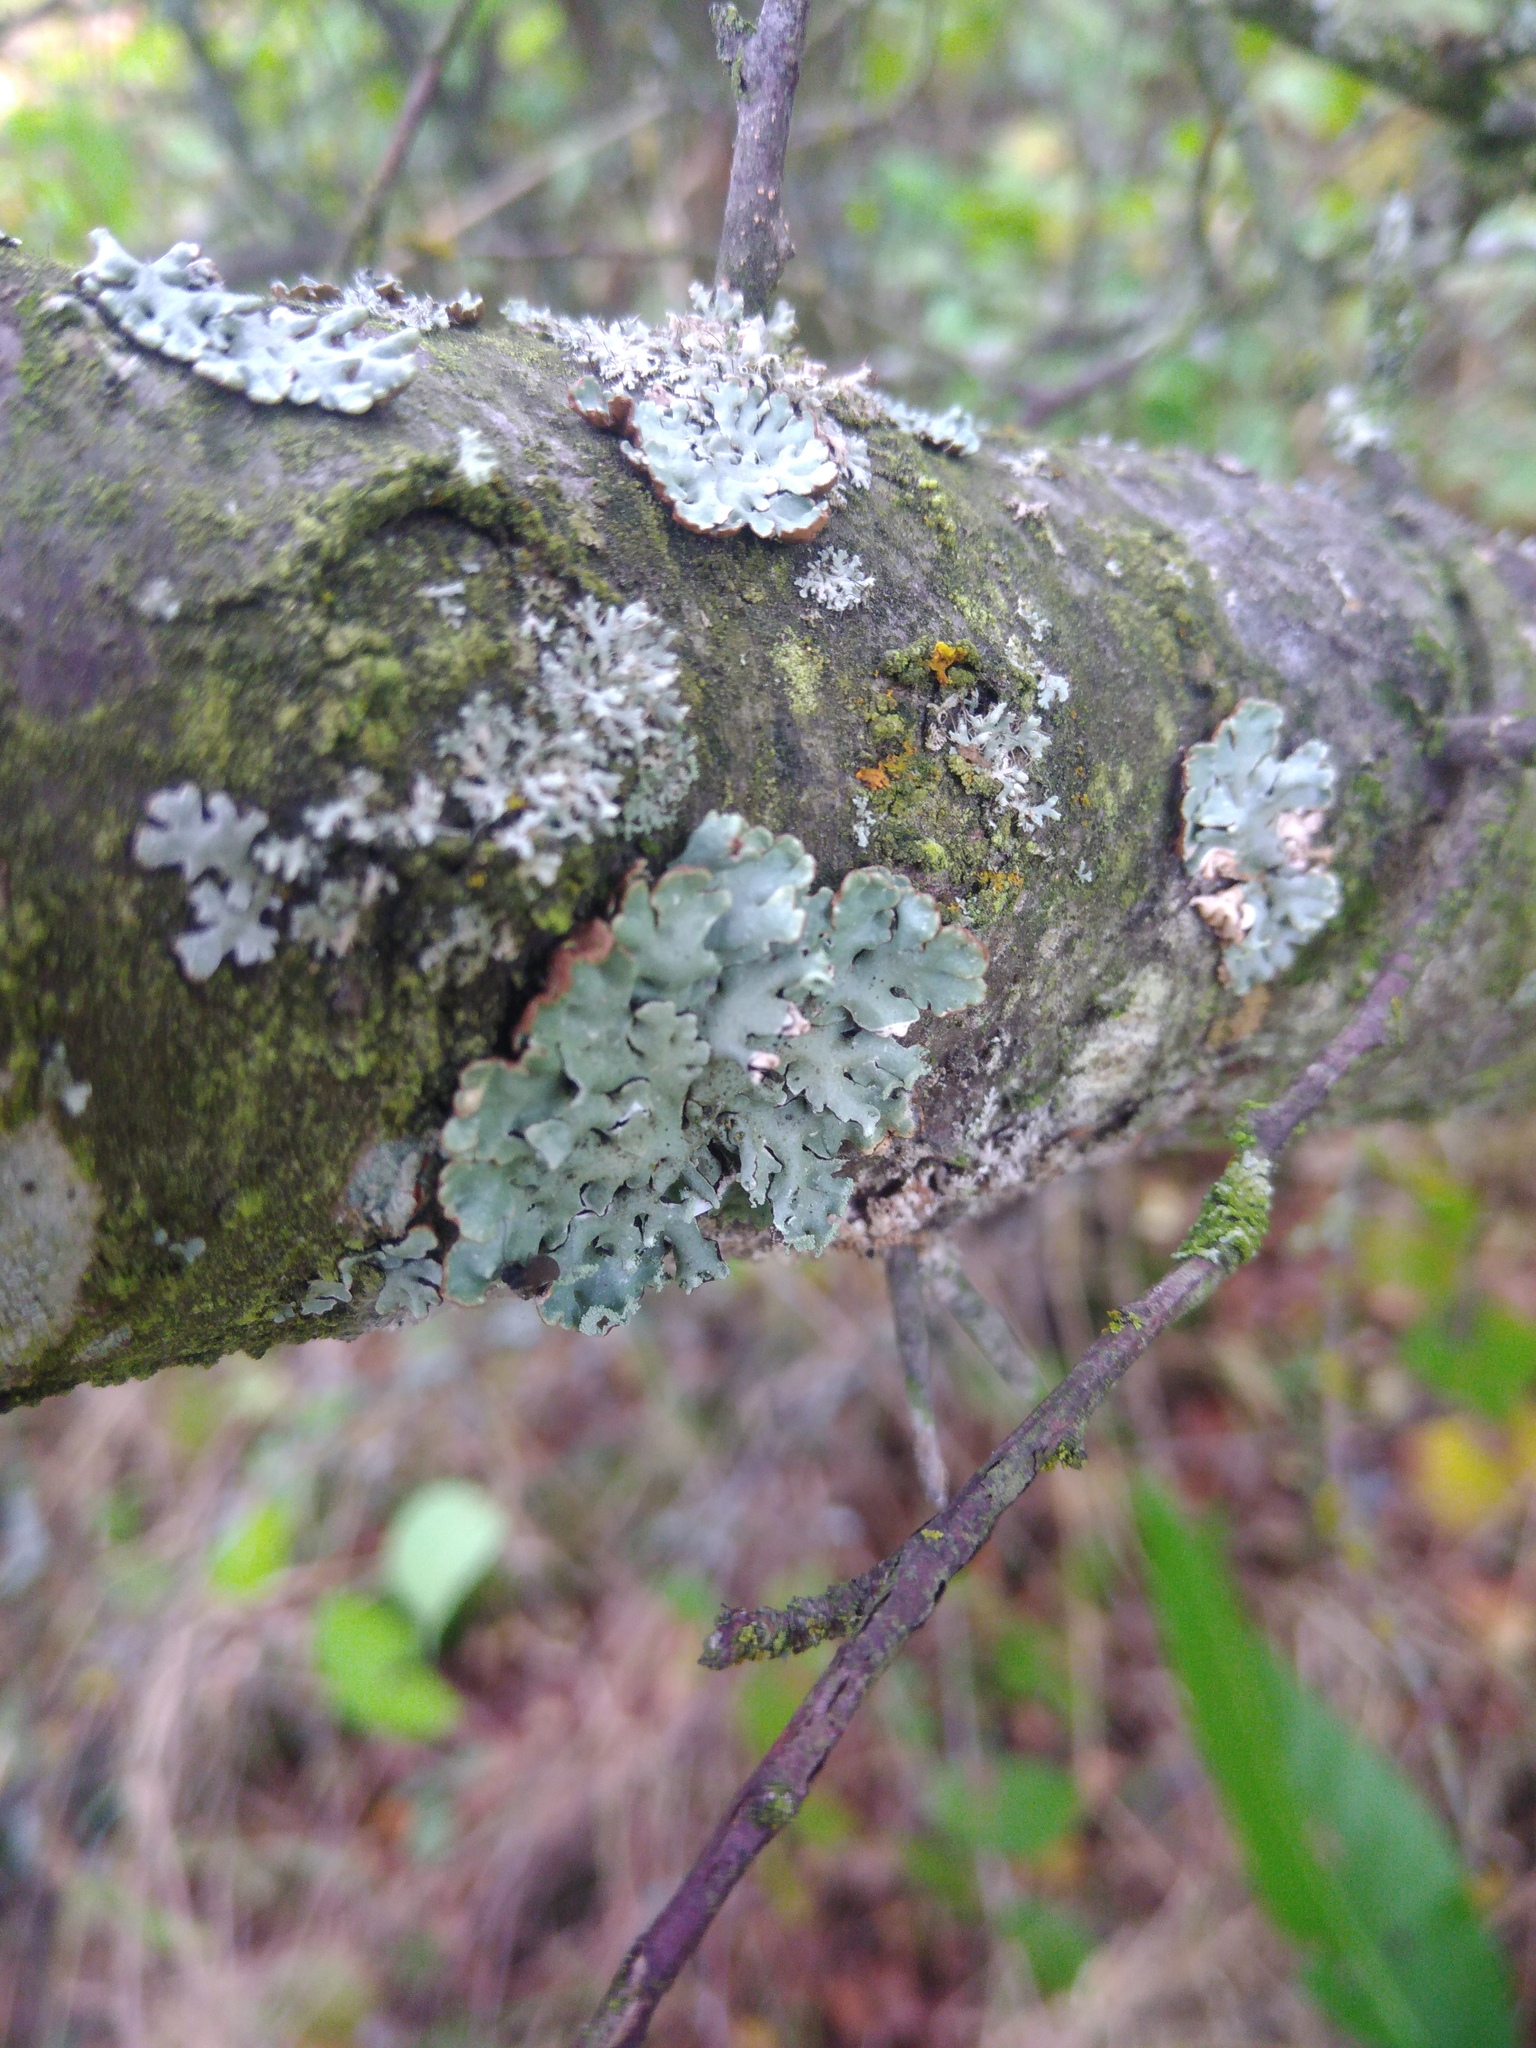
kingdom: Fungi
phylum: Ascomycota
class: Lecanoromycetes
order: Lecanorales
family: Parmeliaceae
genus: Hypogymnia
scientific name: Hypogymnia physodes
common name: Dark crottle
